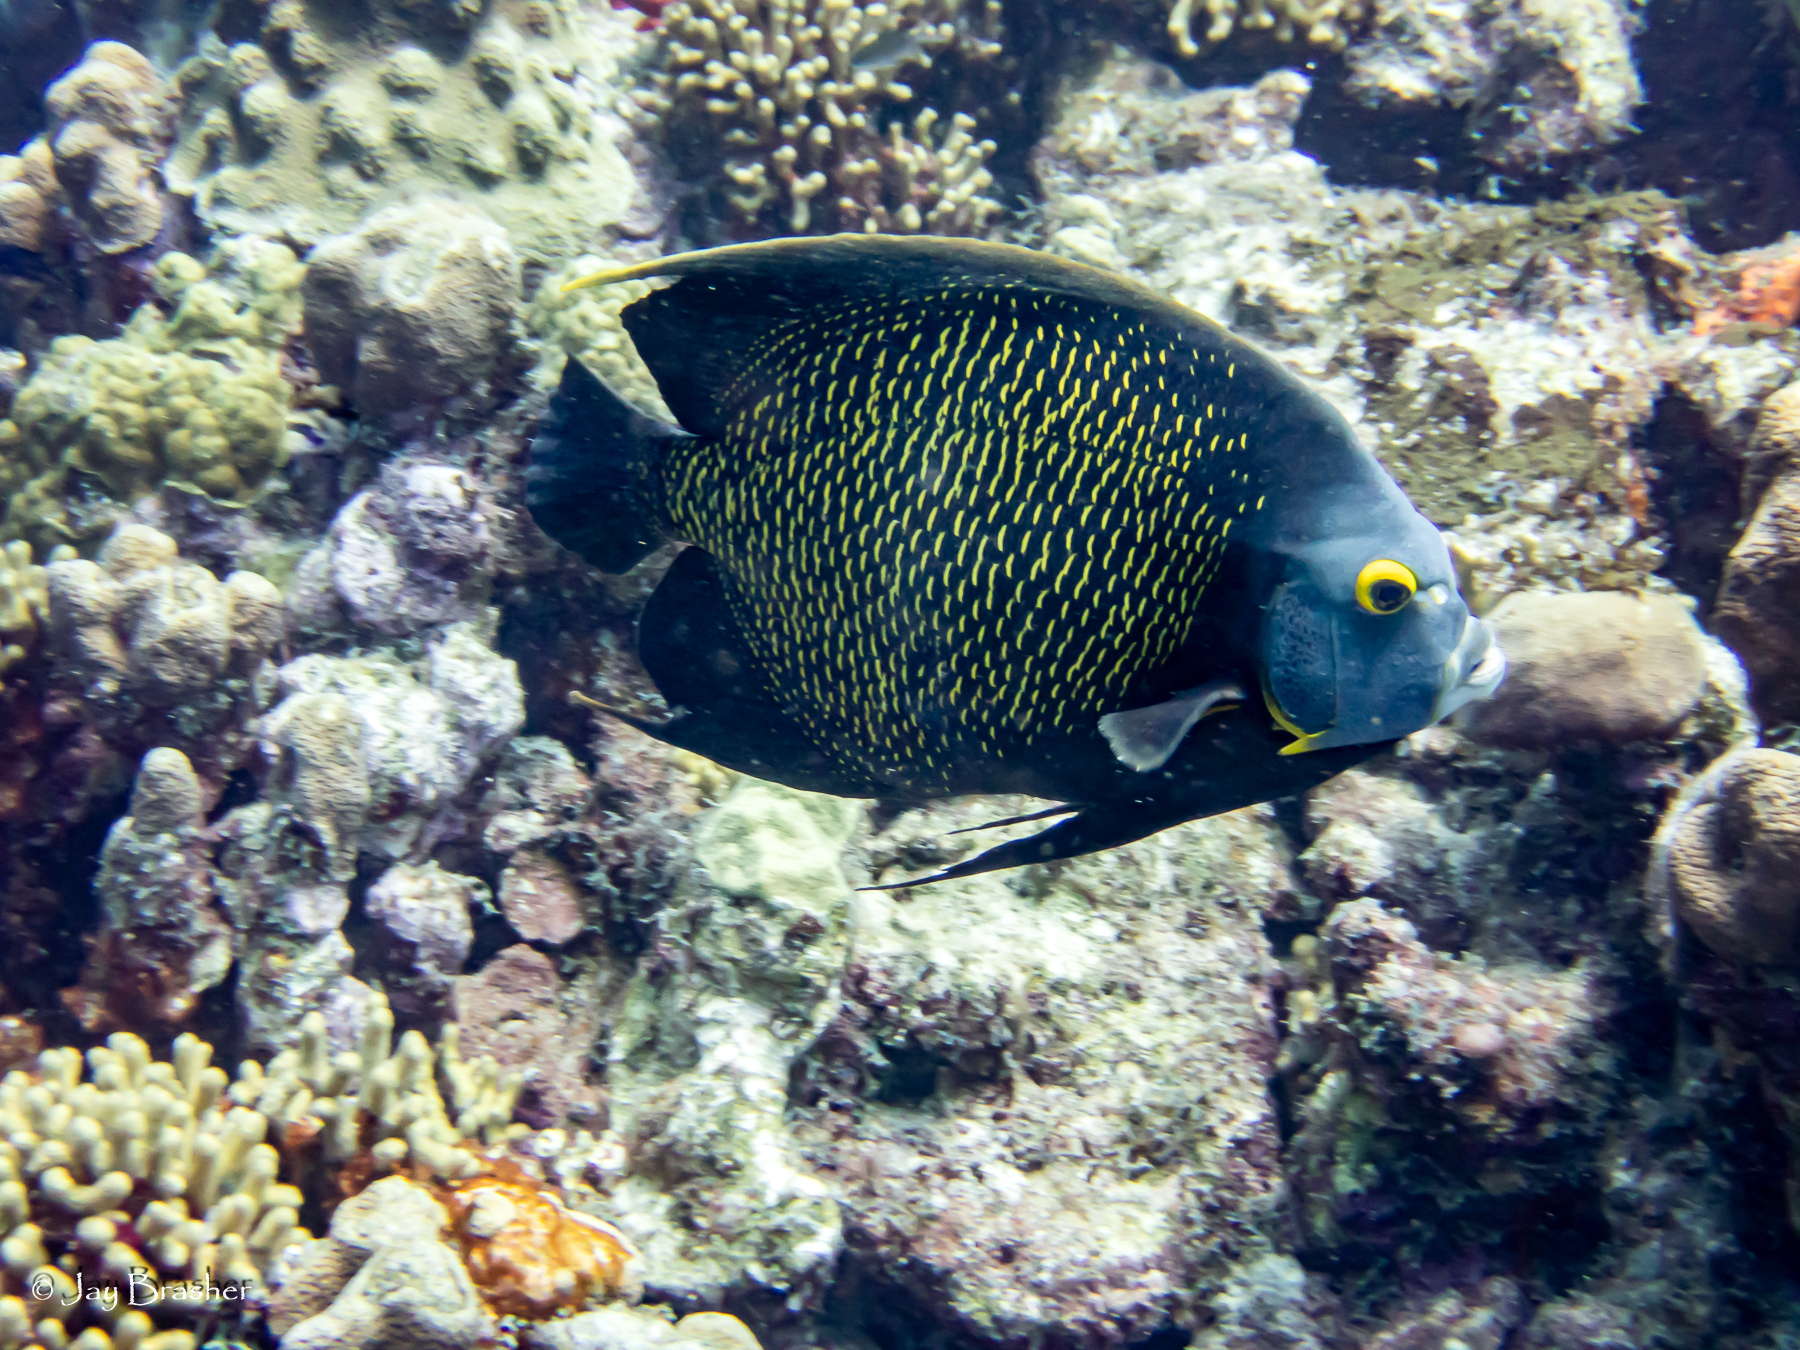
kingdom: Animalia
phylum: Chordata
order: Perciformes
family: Pomacanthidae
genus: Pomacanthus
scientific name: Pomacanthus paru
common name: French angelfish
